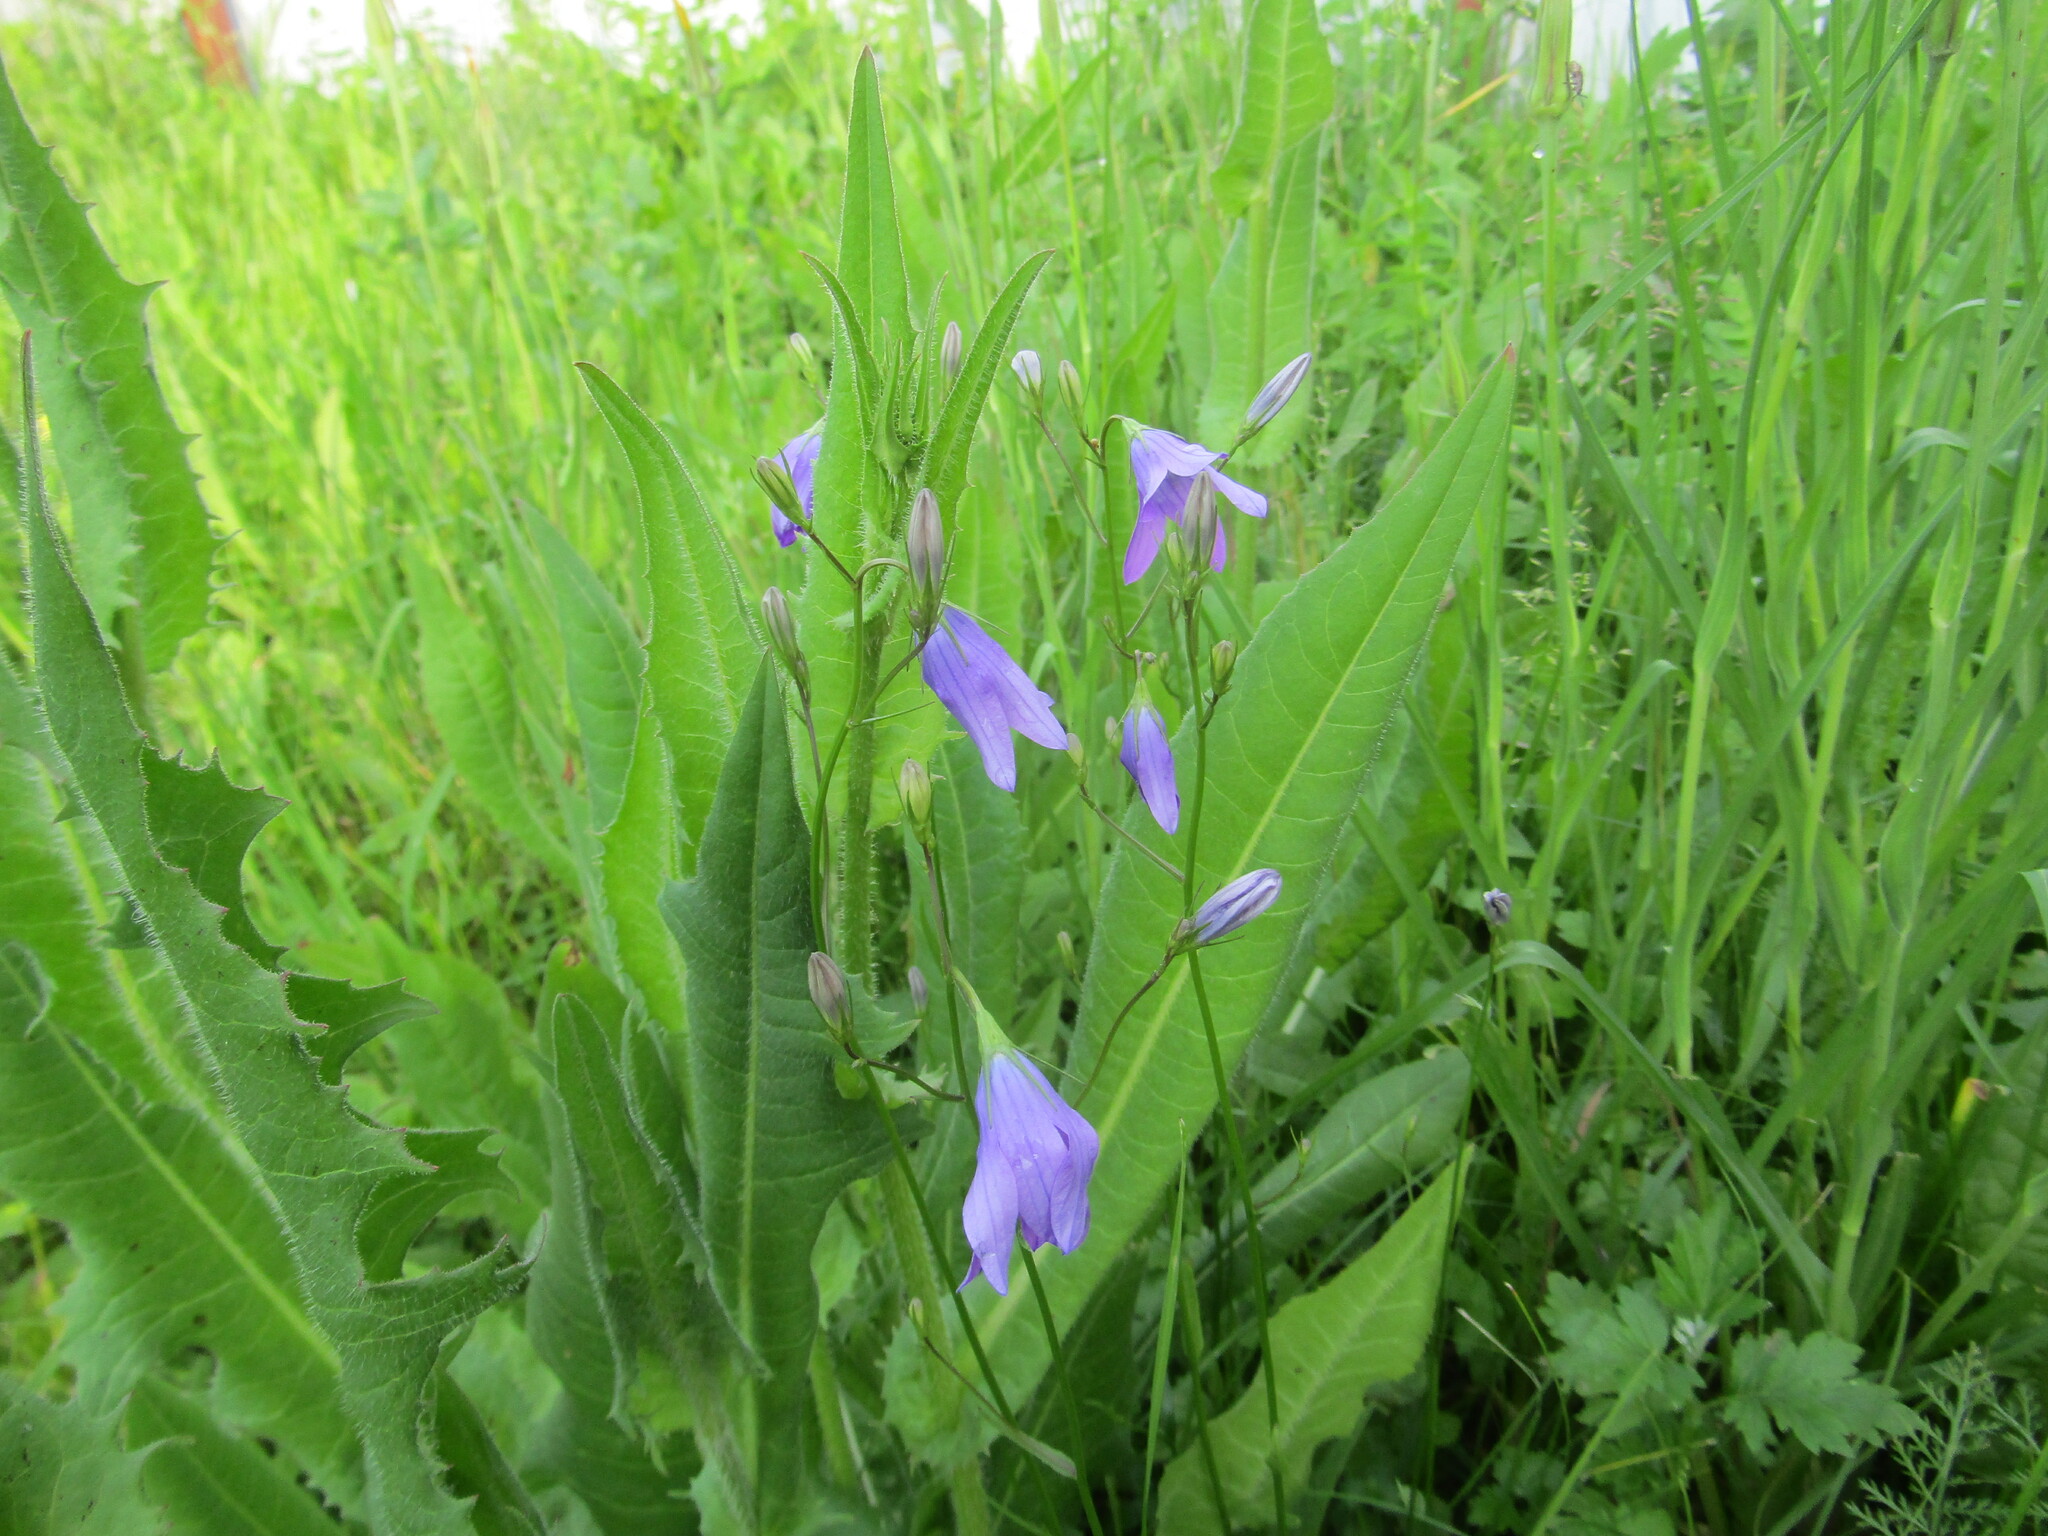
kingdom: Plantae
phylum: Tracheophyta
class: Magnoliopsida
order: Asterales
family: Campanulaceae
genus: Campanula
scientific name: Campanula patula
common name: Spreading bellflower
